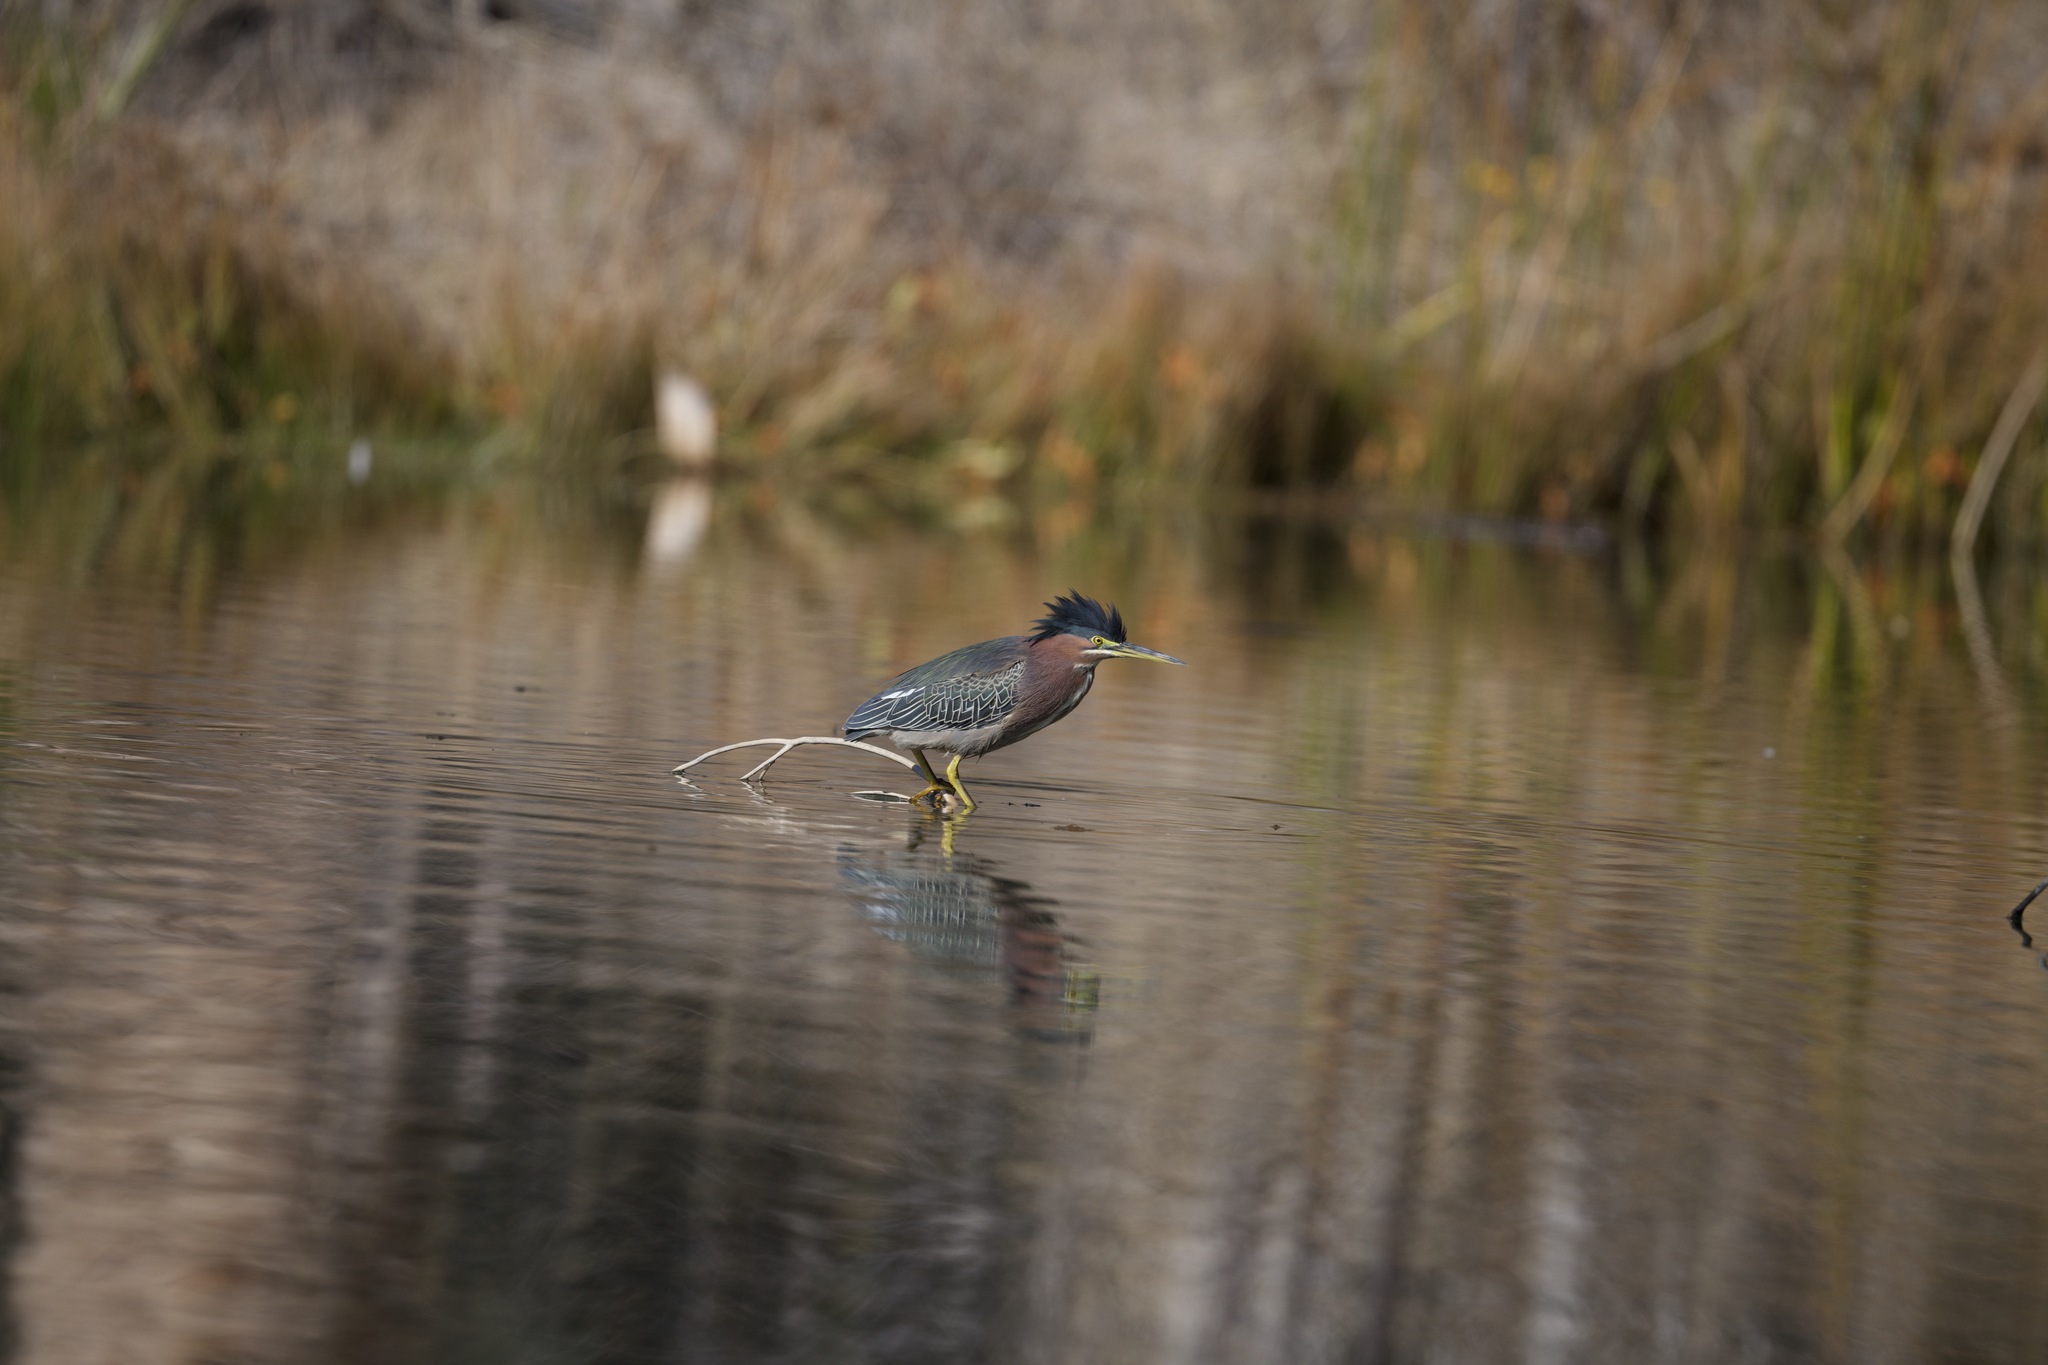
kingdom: Animalia
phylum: Chordata
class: Aves
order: Pelecaniformes
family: Ardeidae
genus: Butorides
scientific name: Butorides virescens
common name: Green heron
